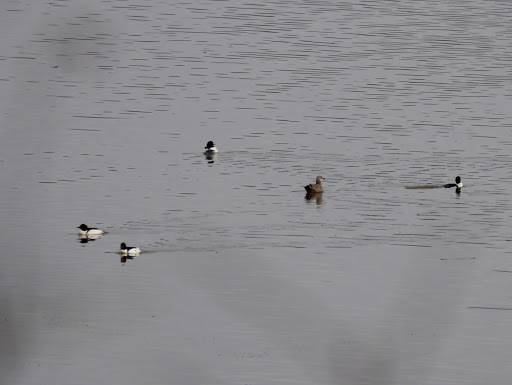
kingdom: Animalia
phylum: Chordata
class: Aves
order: Anseriformes
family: Anatidae
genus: Mergus
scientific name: Mergus merganser
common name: Common merganser
